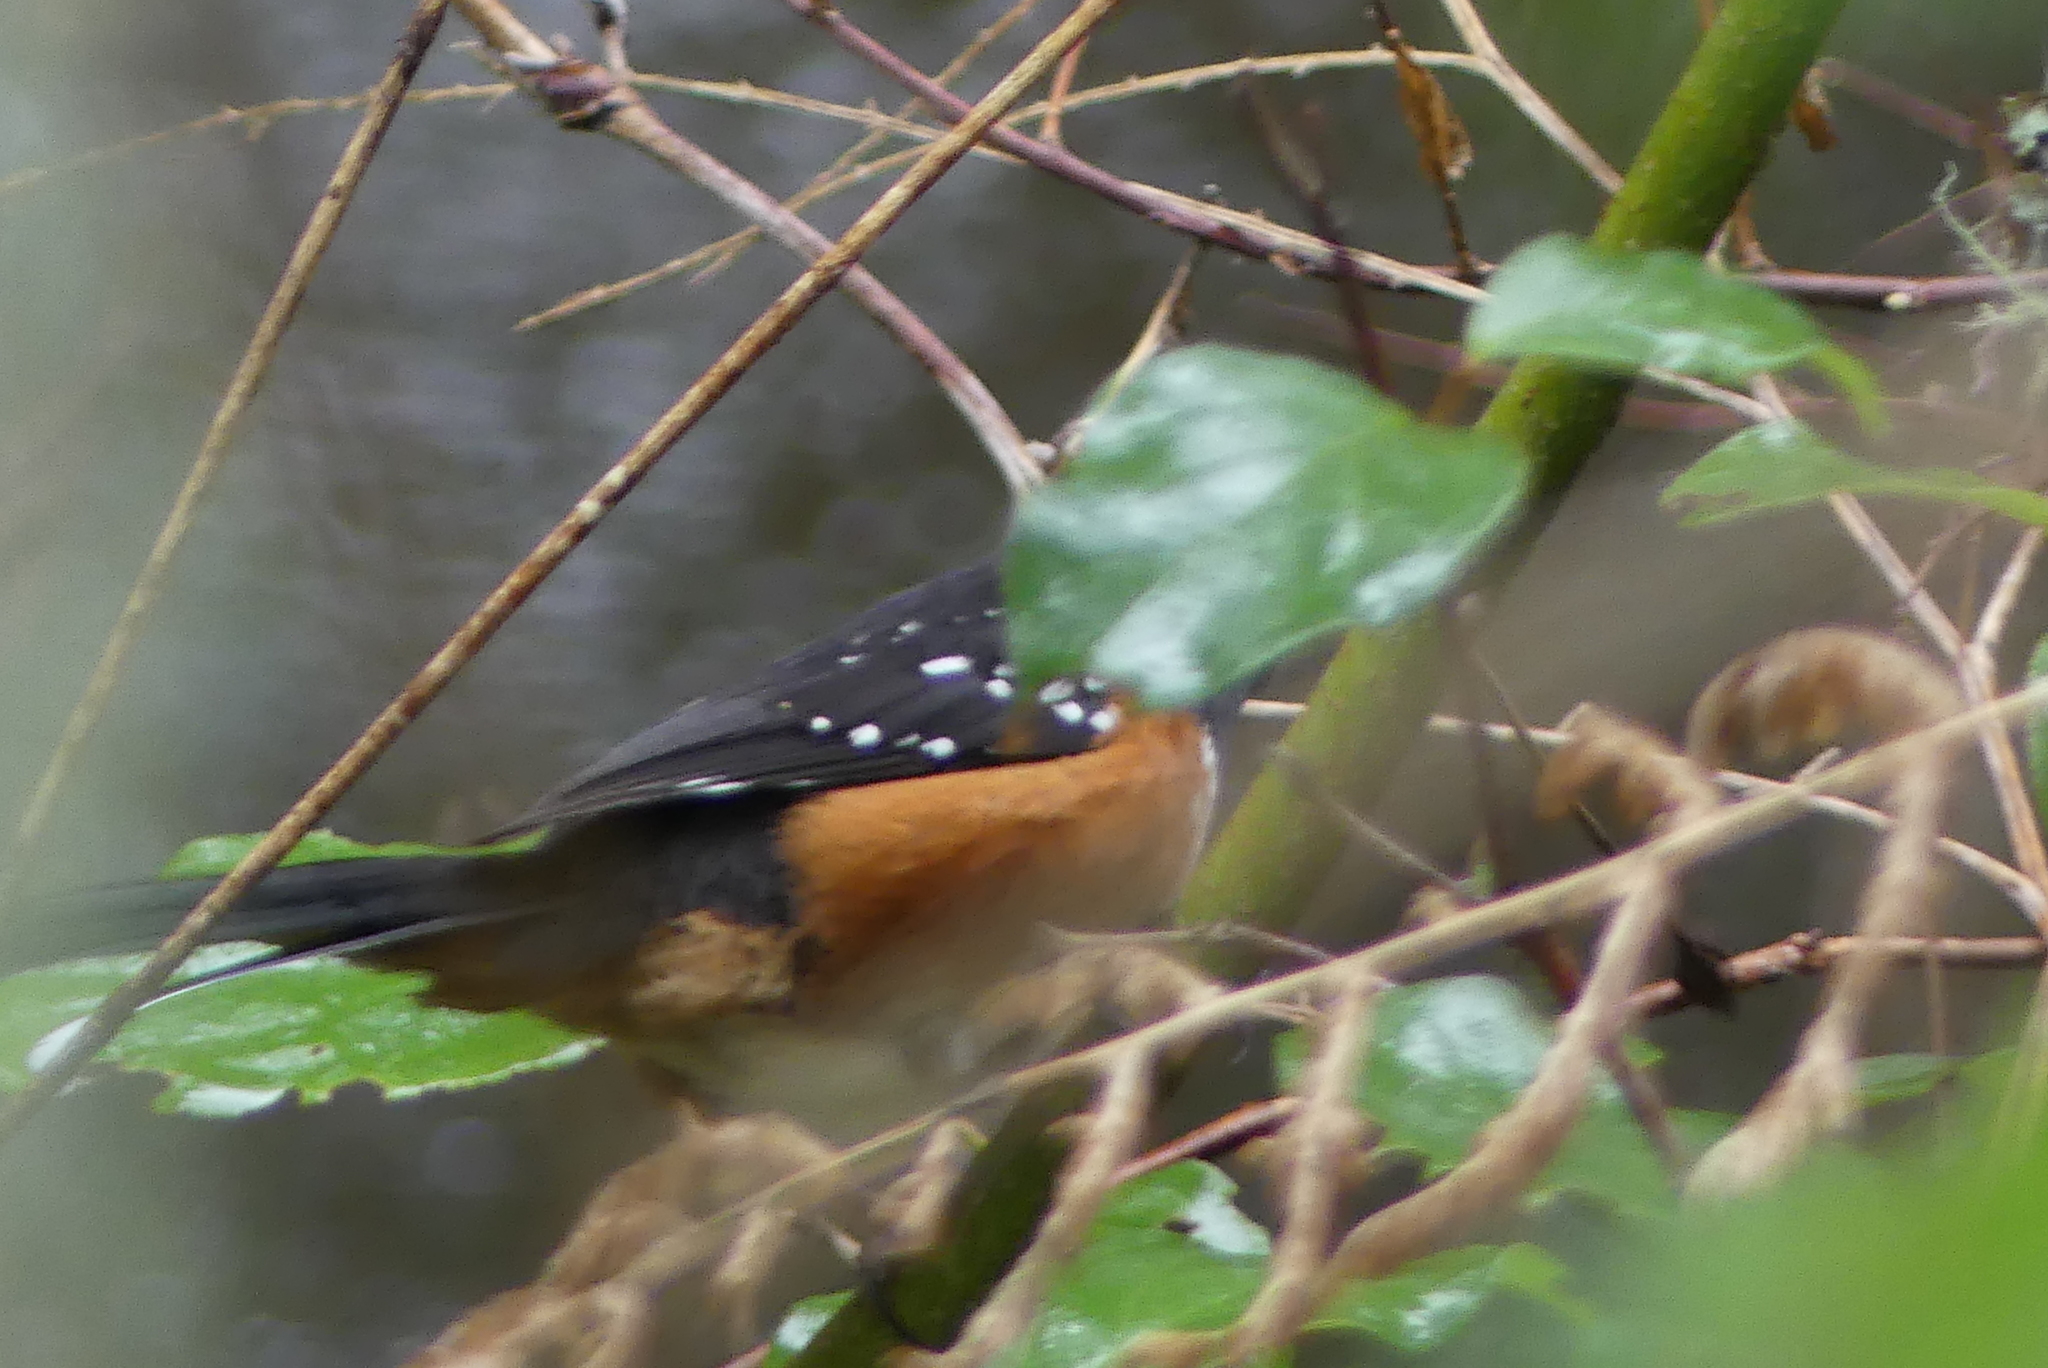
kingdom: Animalia
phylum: Chordata
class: Aves
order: Passeriformes
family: Passerellidae
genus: Pipilo
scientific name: Pipilo maculatus
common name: Spotted towhee
